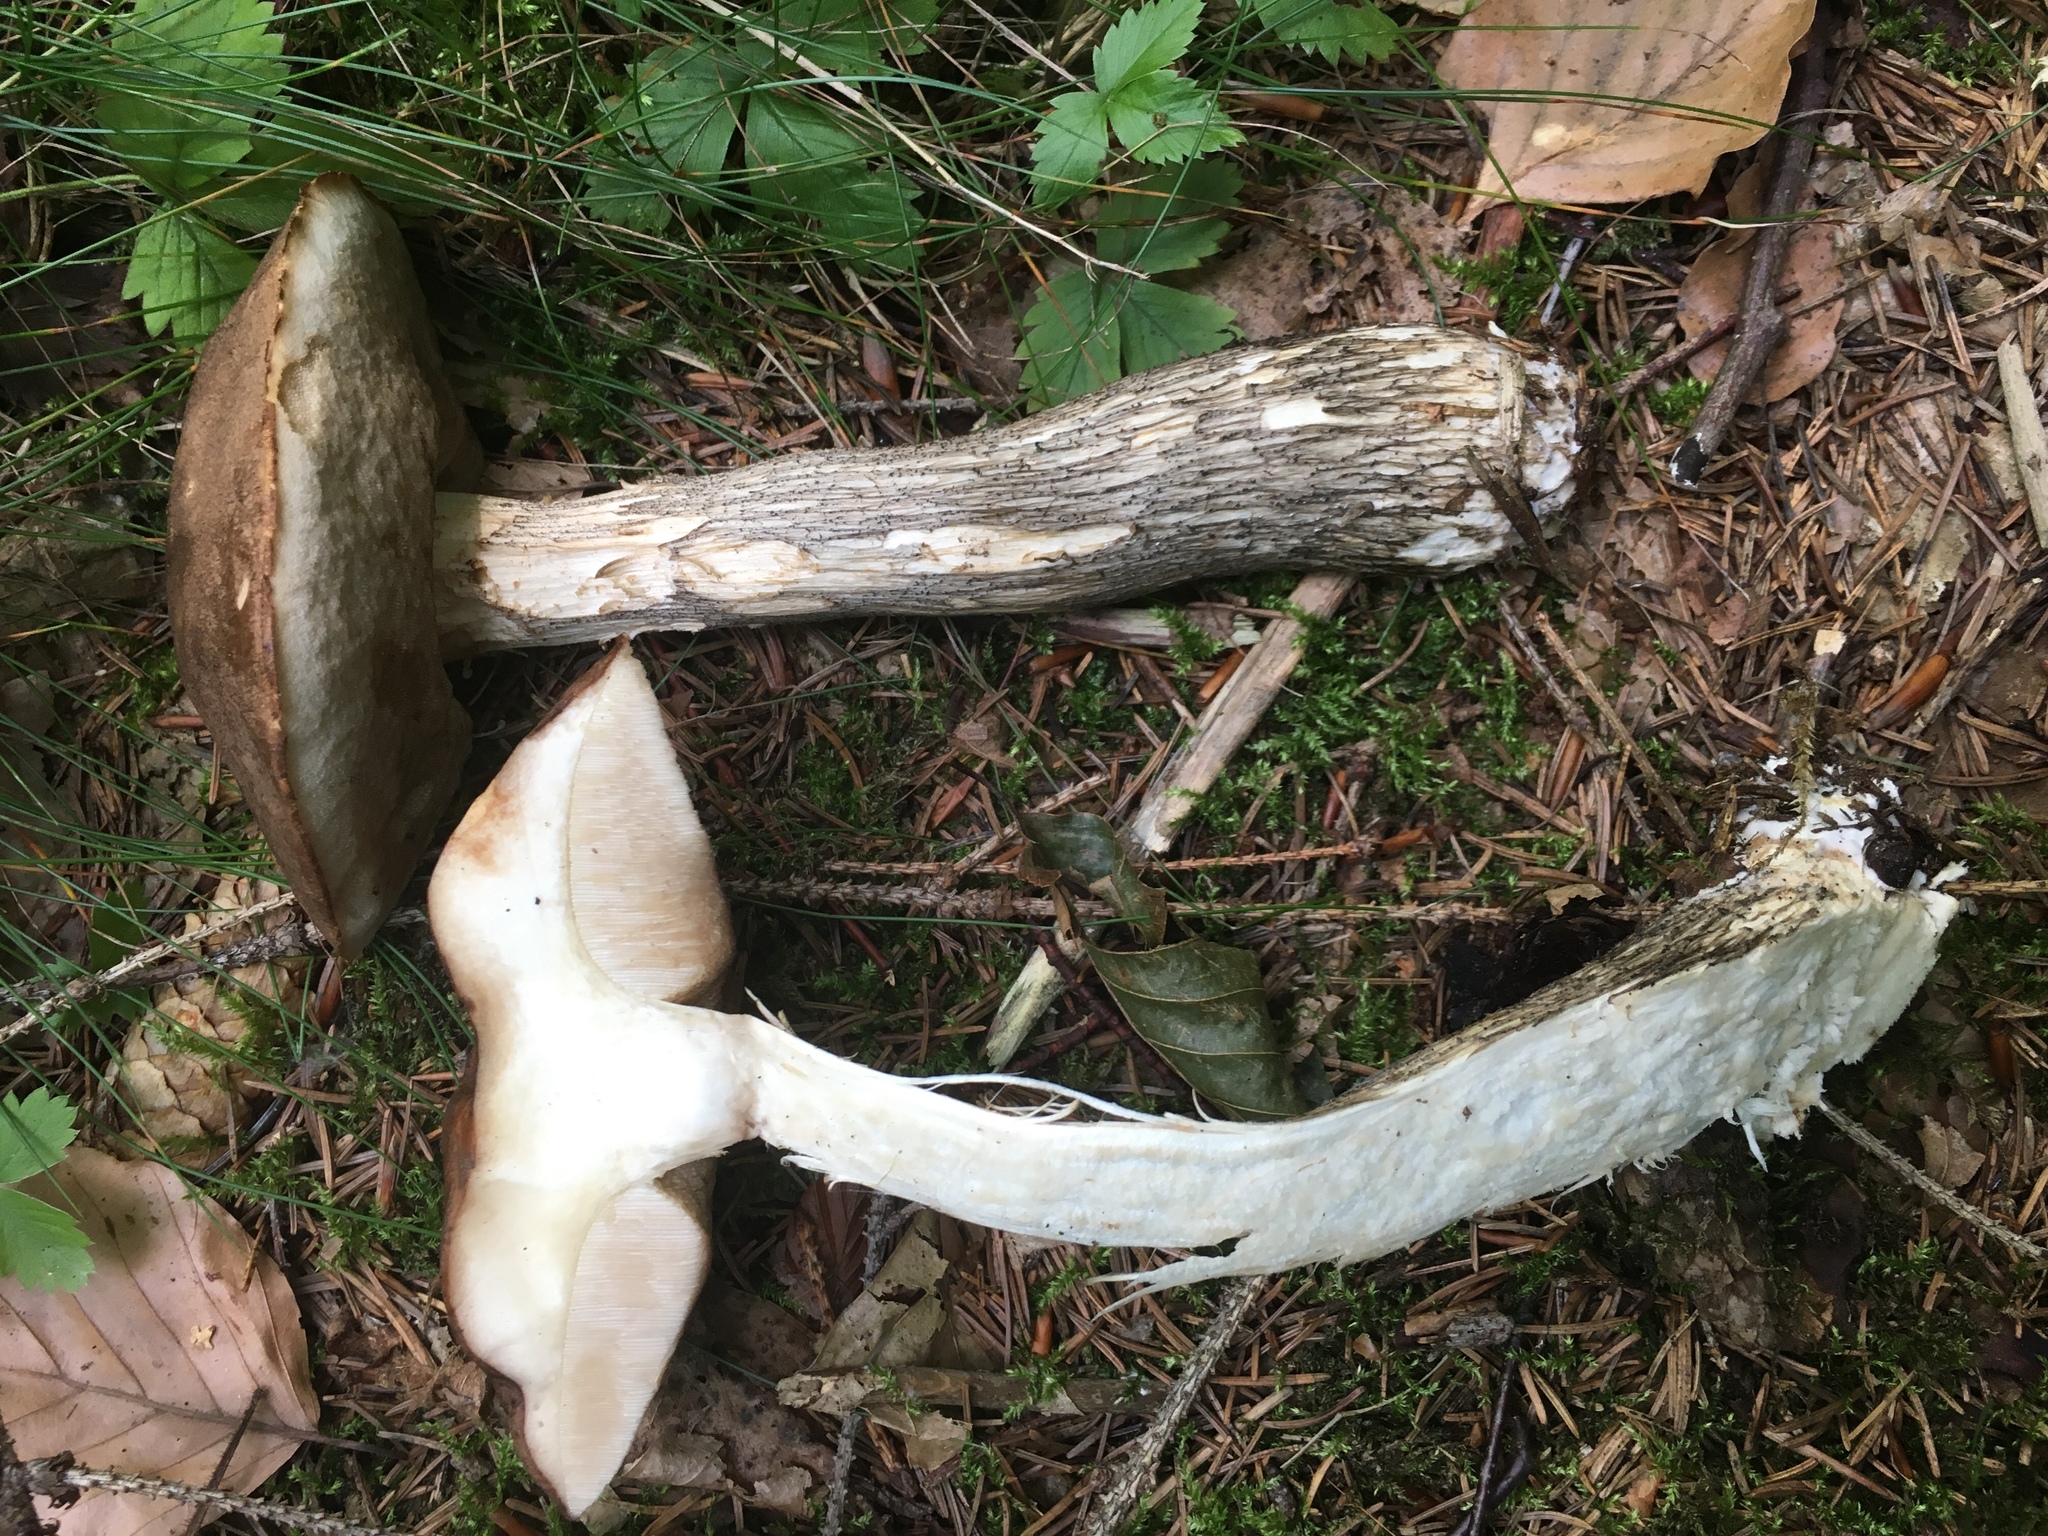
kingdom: Fungi
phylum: Basidiomycota
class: Agaricomycetes
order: Boletales
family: Boletaceae
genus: Leccinum
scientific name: Leccinum scabrum
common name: Blushing bolete
